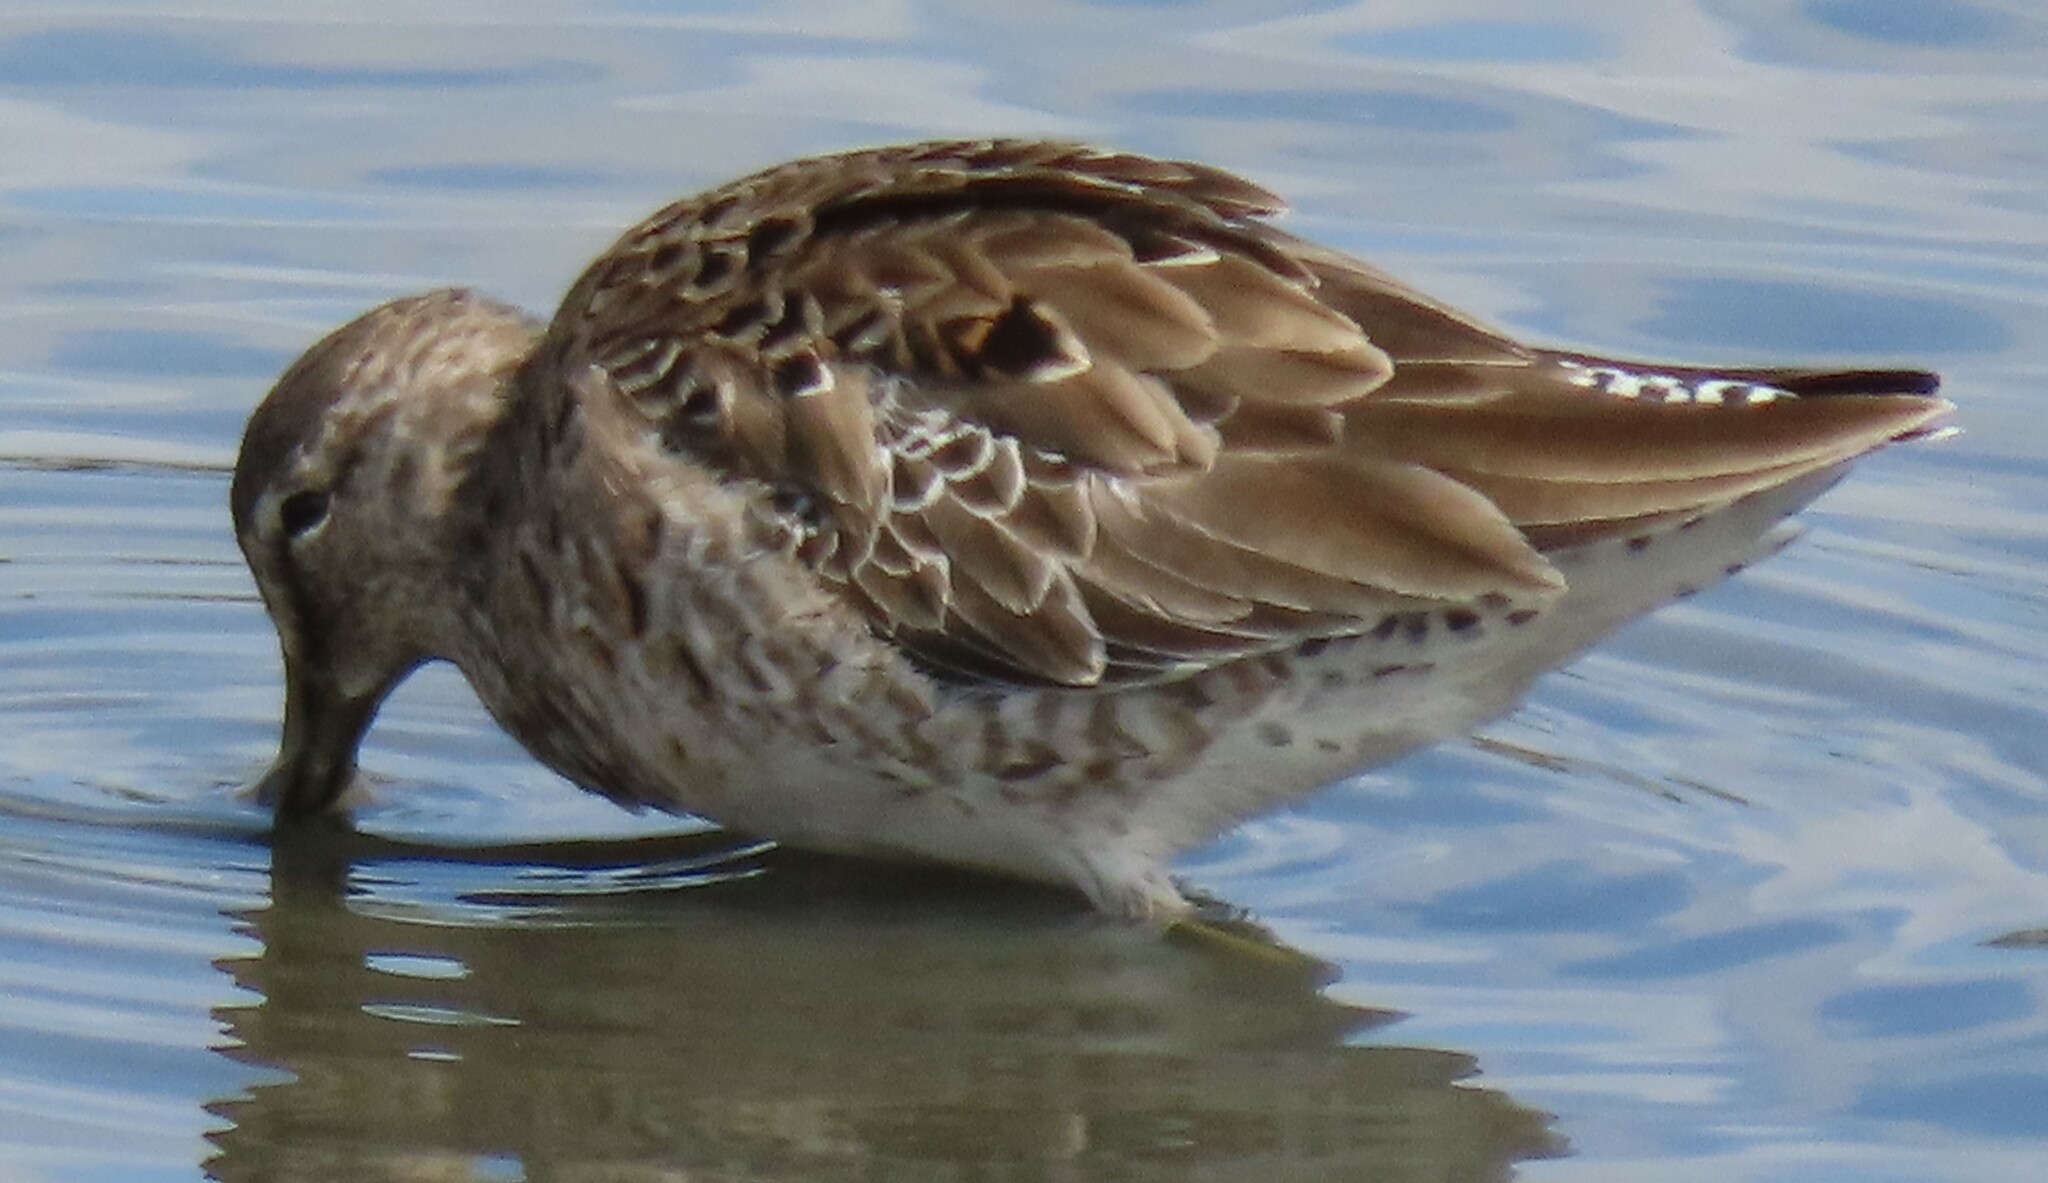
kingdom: Animalia
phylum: Chordata
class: Aves
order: Charadriiformes
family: Scolopacidae
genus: Limnodromus
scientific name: Limnodromus griseus
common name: Short-billed dowitcher
